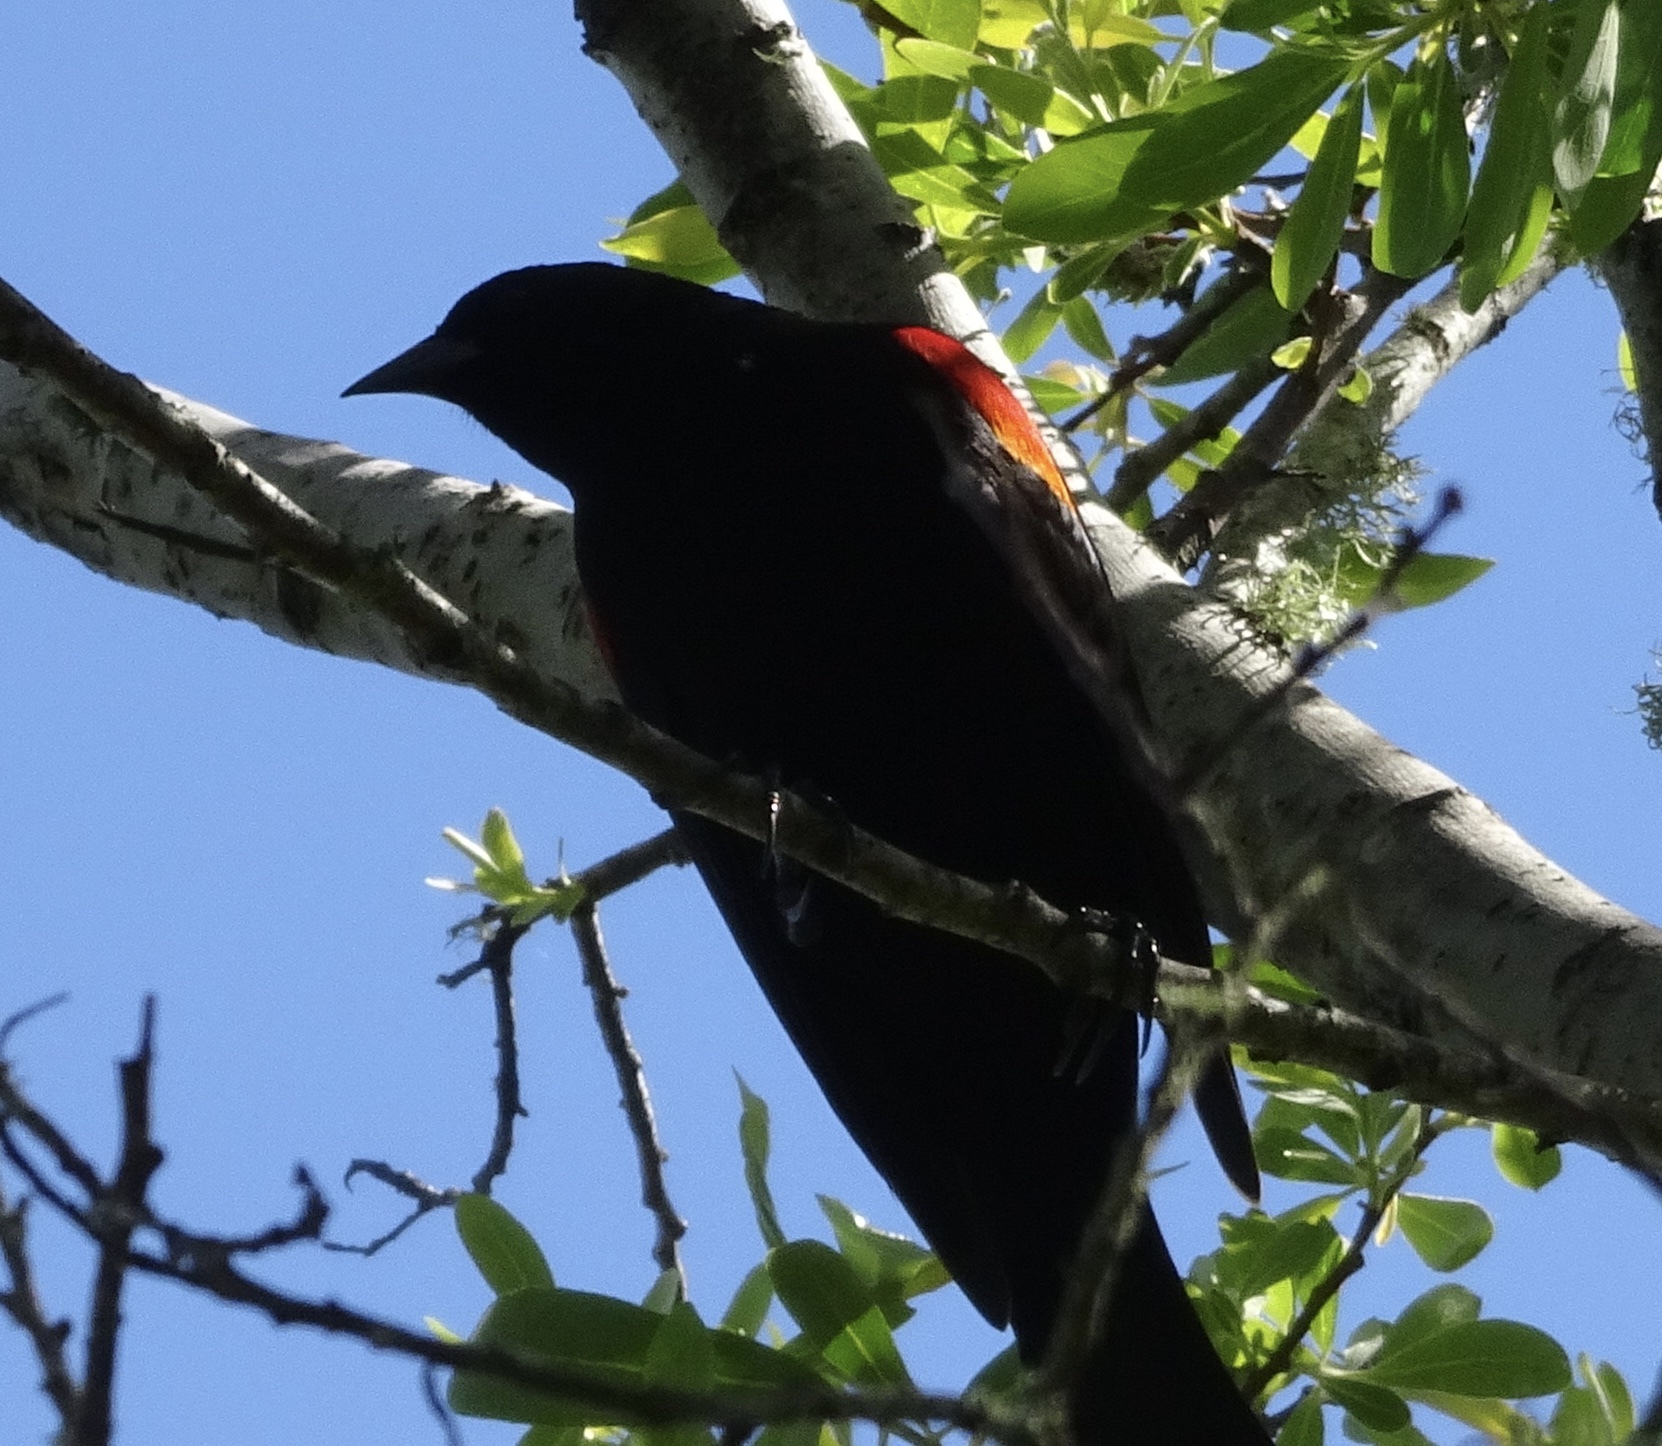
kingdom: Animalia
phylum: Chordata
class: Aves
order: Passeriformes
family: Icteridae
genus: Agelaius
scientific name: Agelaius phoeniceus
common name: Red-winged blackbird
